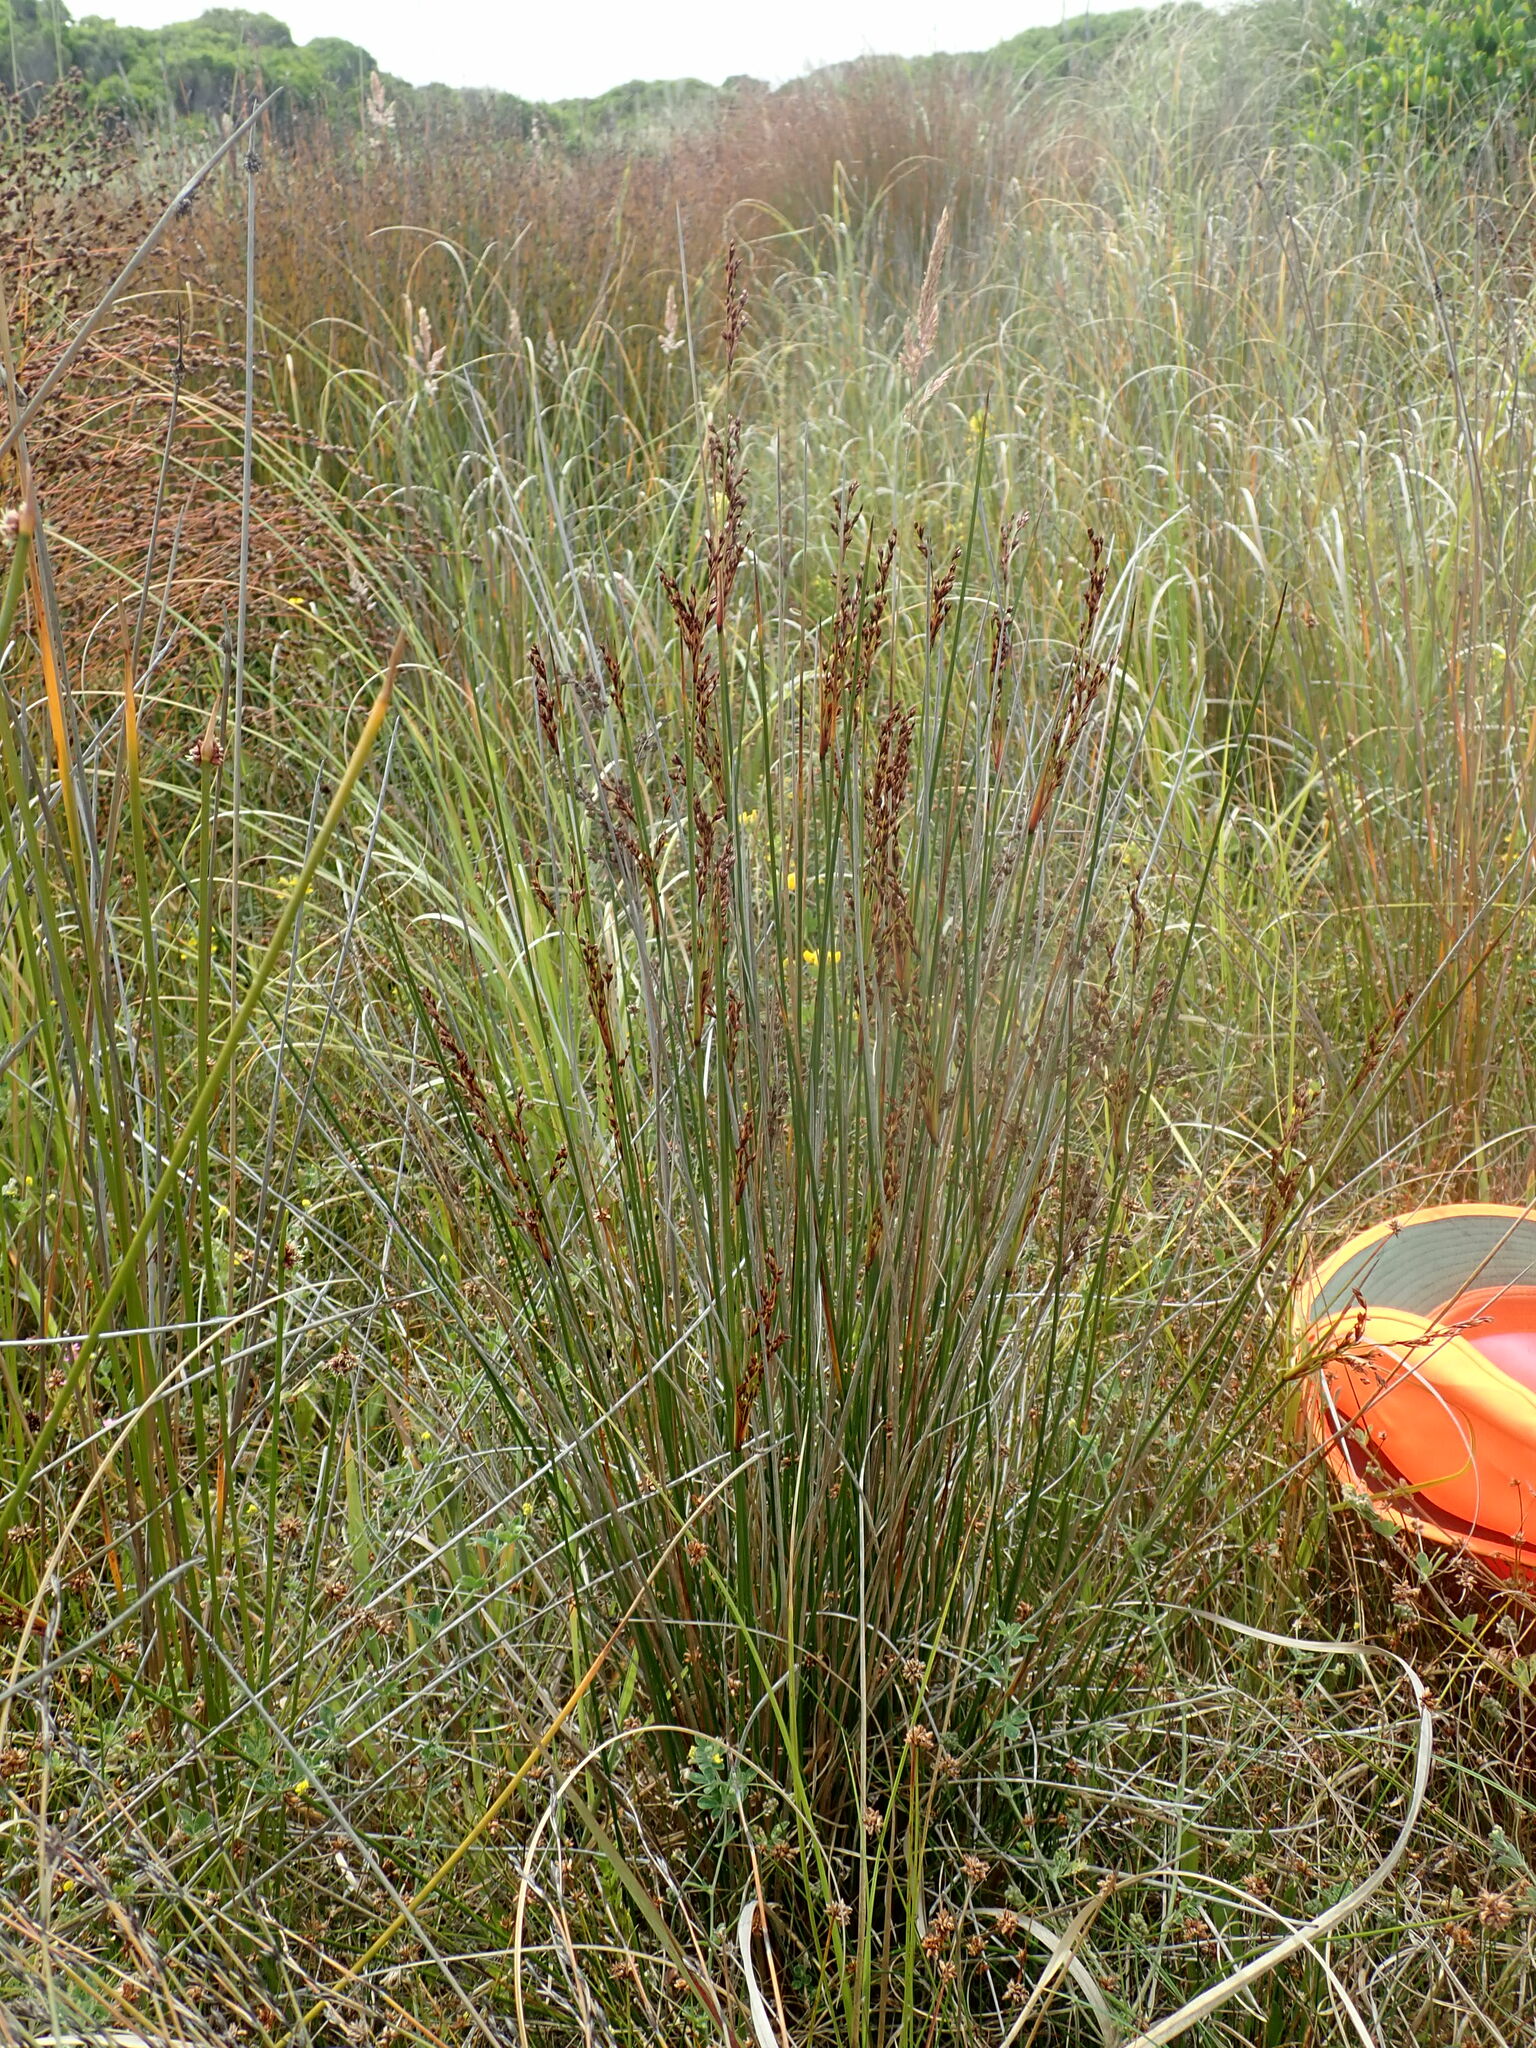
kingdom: Plantae
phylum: Tracheophyta
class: Liliopsida
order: Poales
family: Juncaceae
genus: Juncus
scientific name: Juncus kraussii
